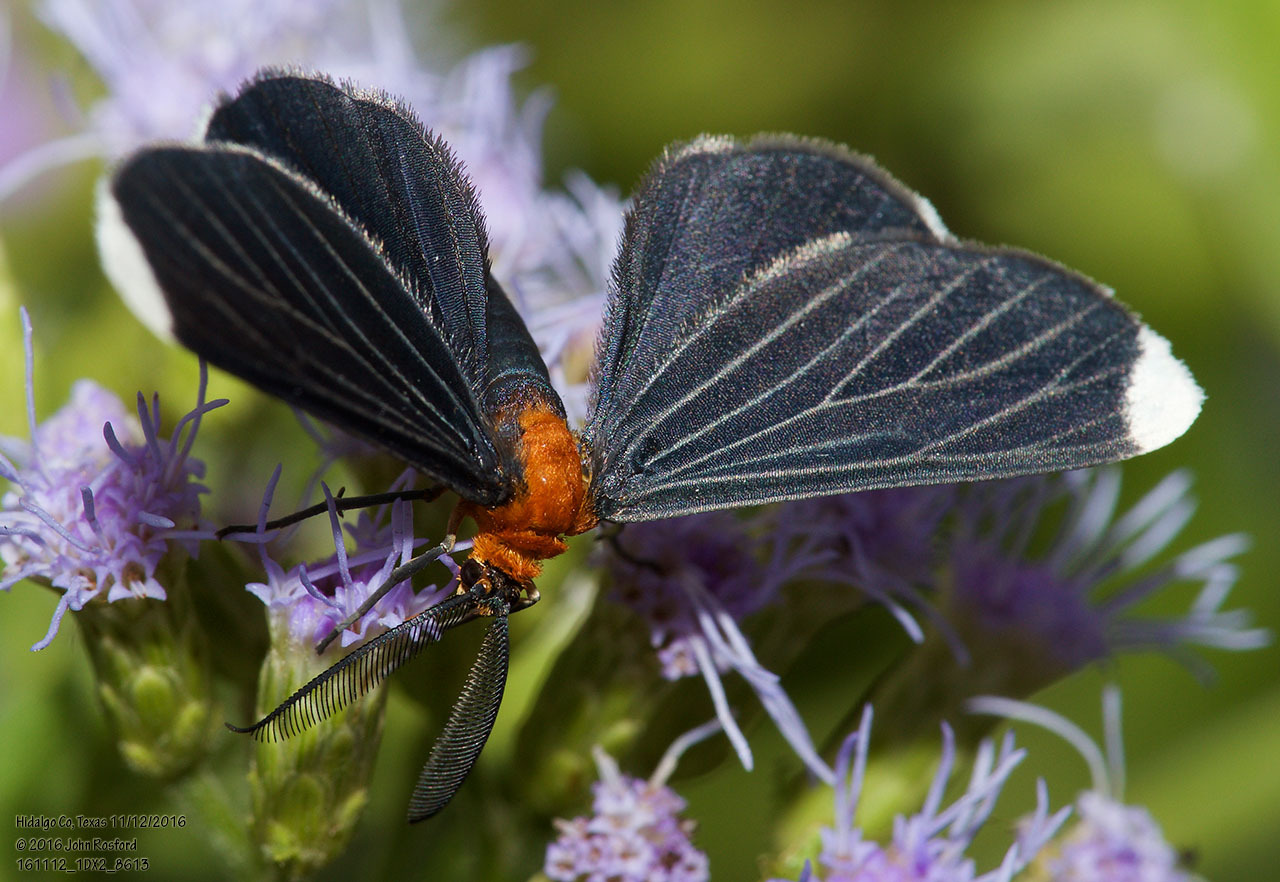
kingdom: Animalia
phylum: Arthropoda
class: Insecta
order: Lepidoptera
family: Geometridae
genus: Melanchroia
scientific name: Melanchroia chephise
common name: White-tipped black
